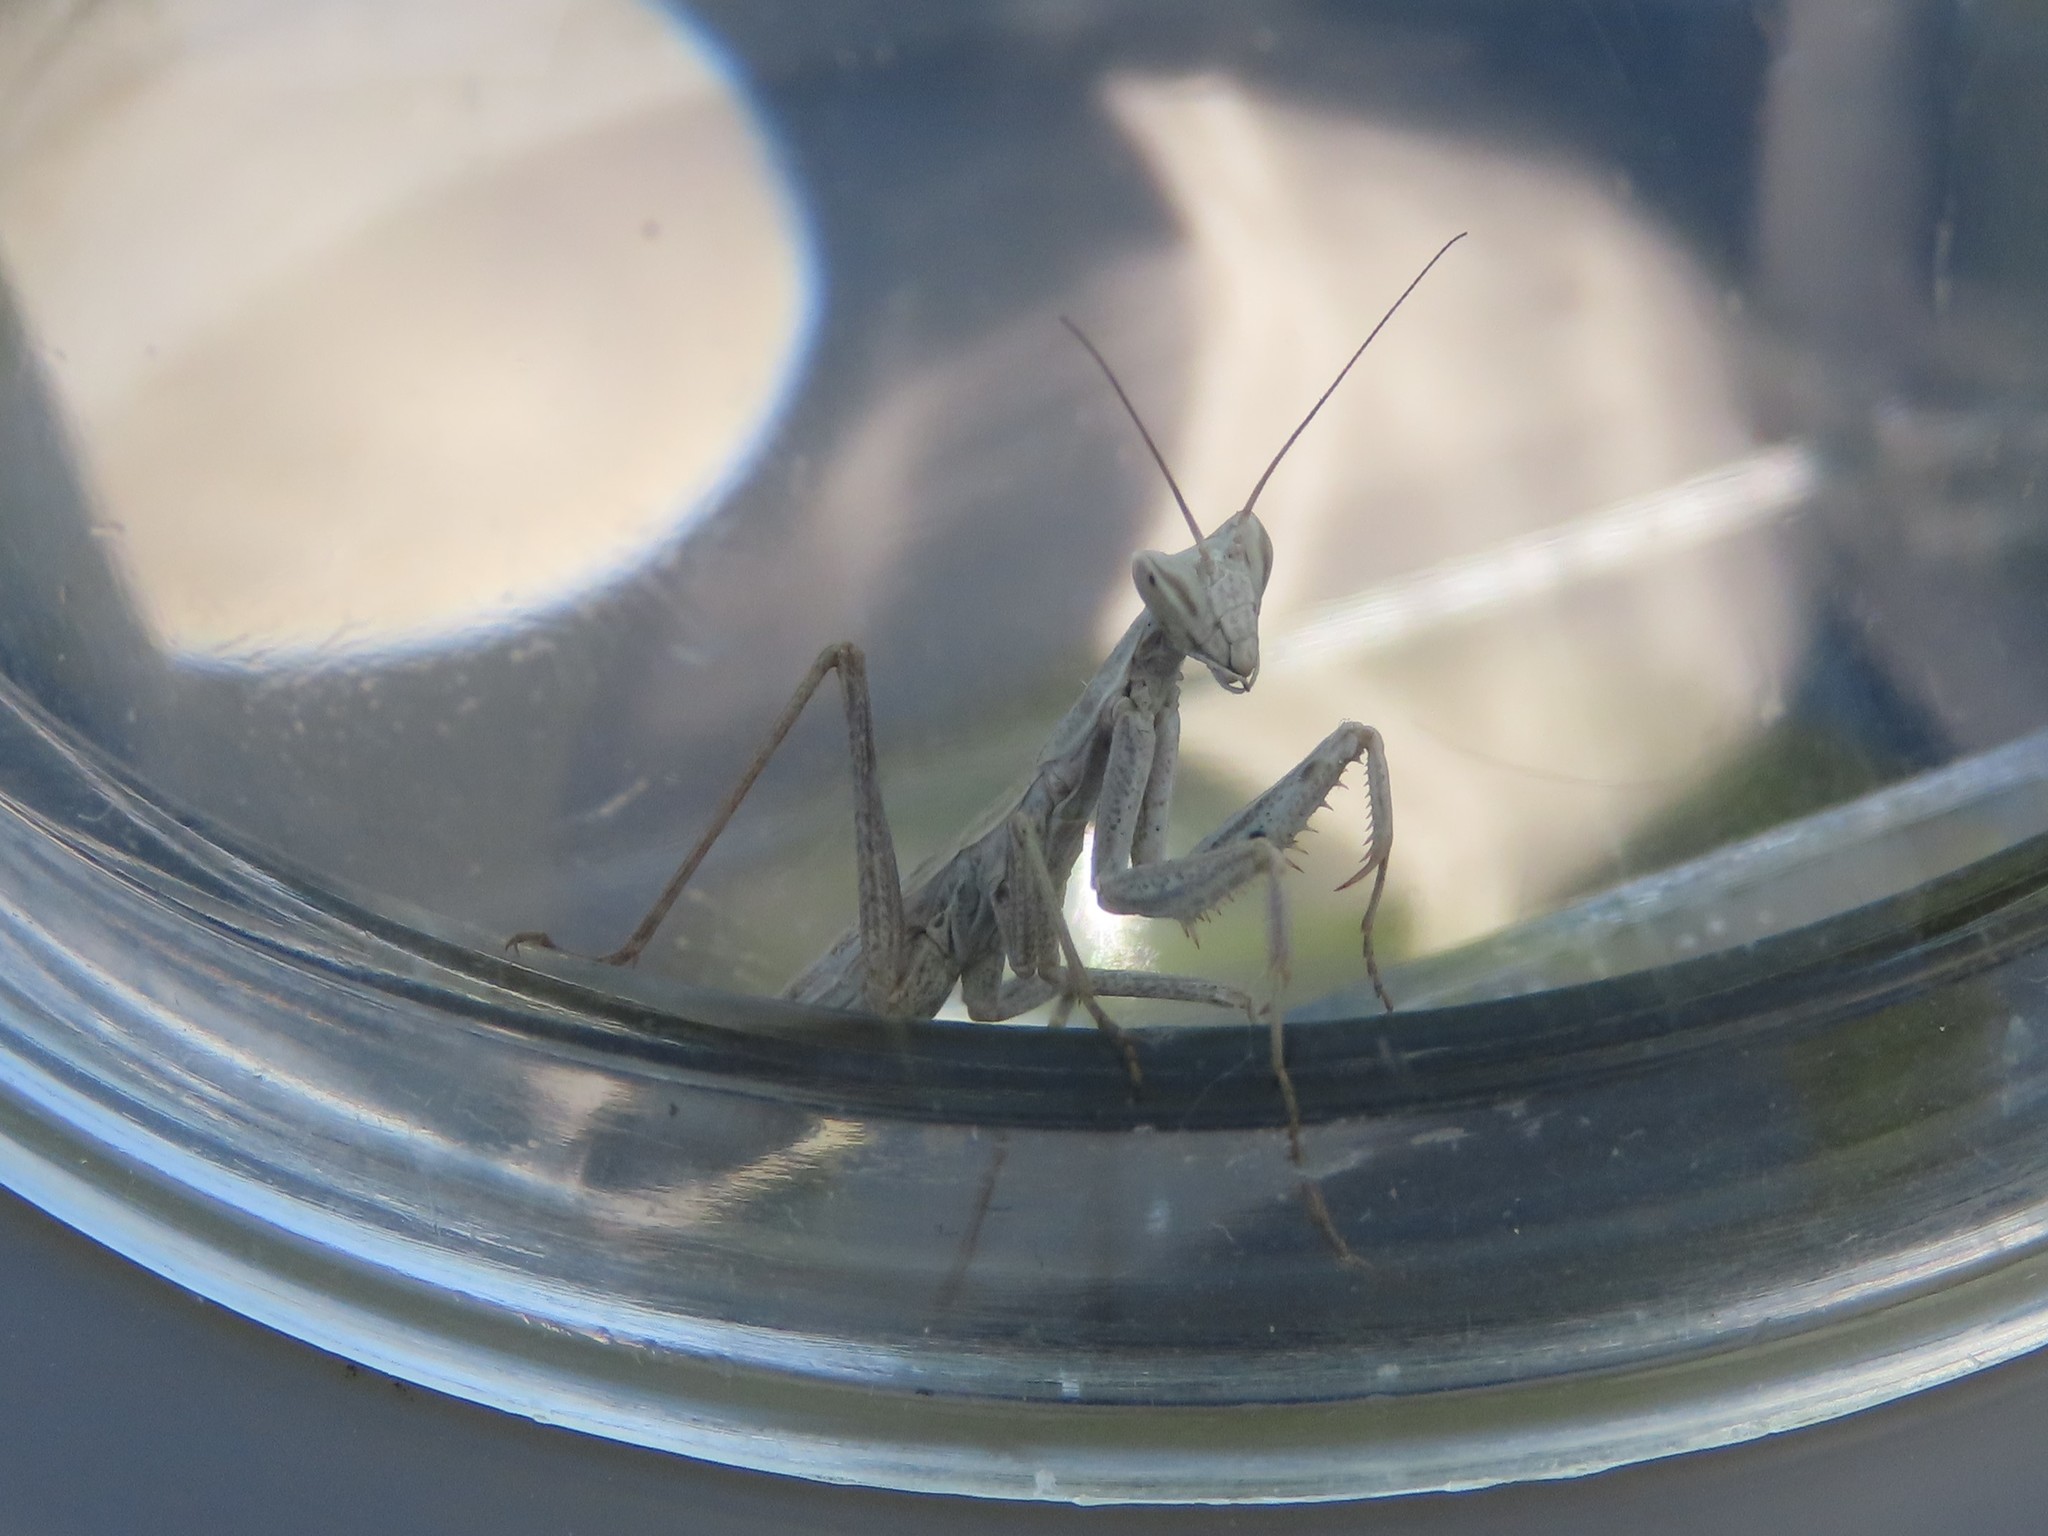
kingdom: Animalia
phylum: Arthropoda
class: Insecta
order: Mantodea
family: Amelidae
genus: Ameles
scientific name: Ameles picteti
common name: Pictet's dwarf mantis
